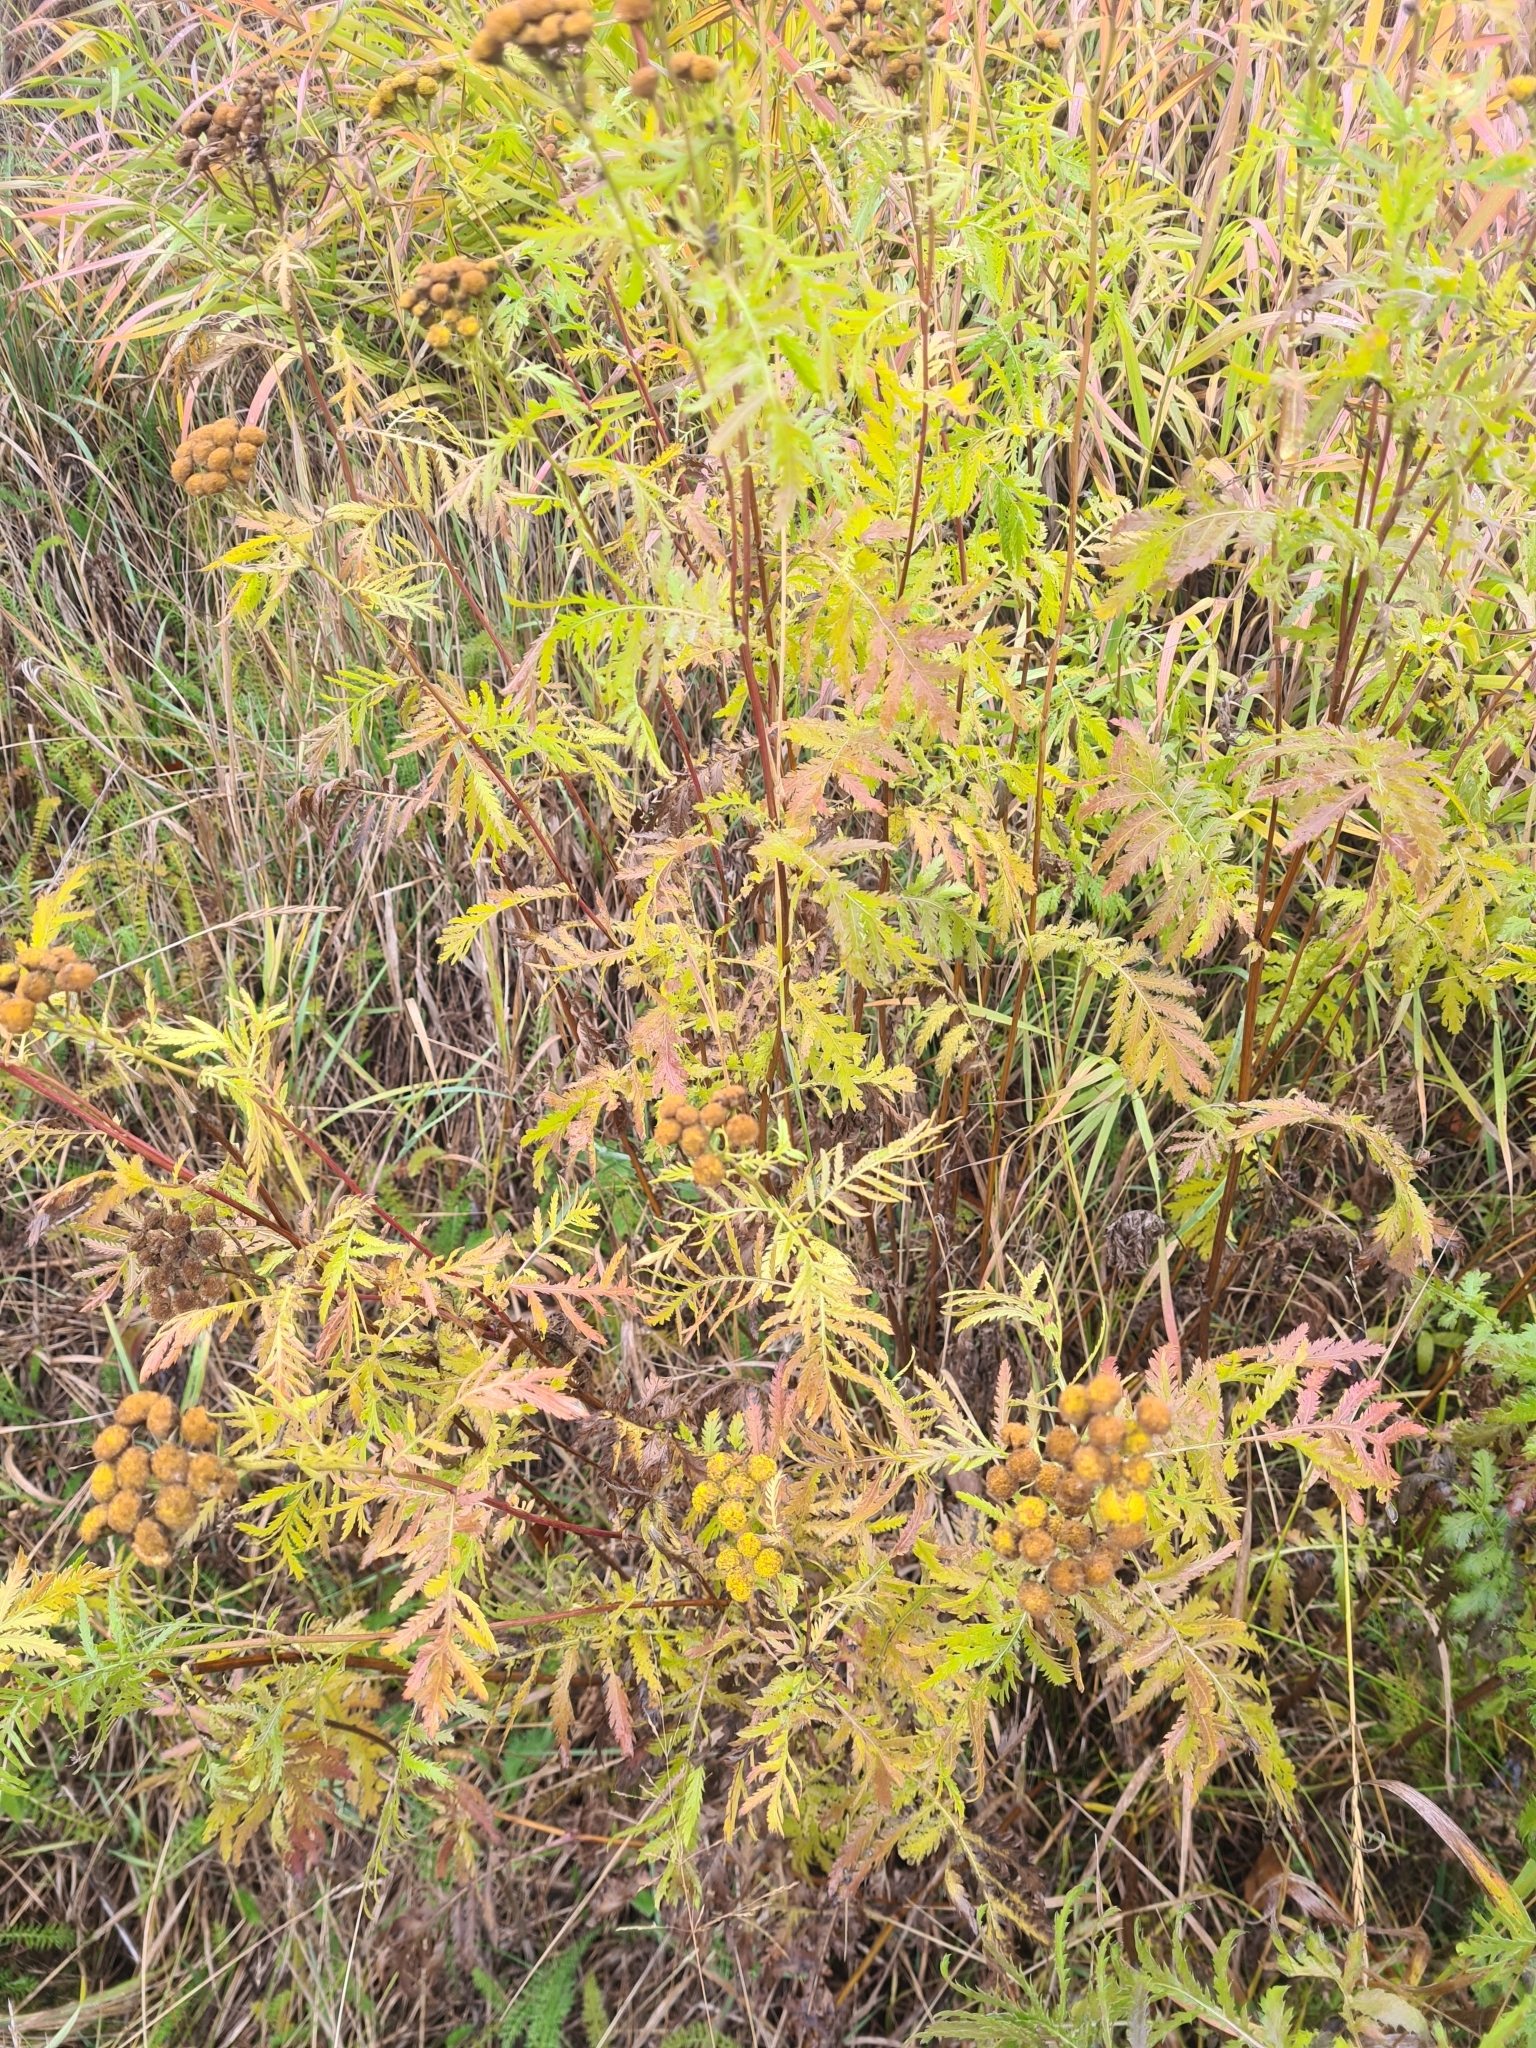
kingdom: Plantae
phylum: Tracheophyta
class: Magnoliopsida
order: Asterales
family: Asteraceae
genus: Tanacetum
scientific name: Tanacetum vulgare
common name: Common tansy
